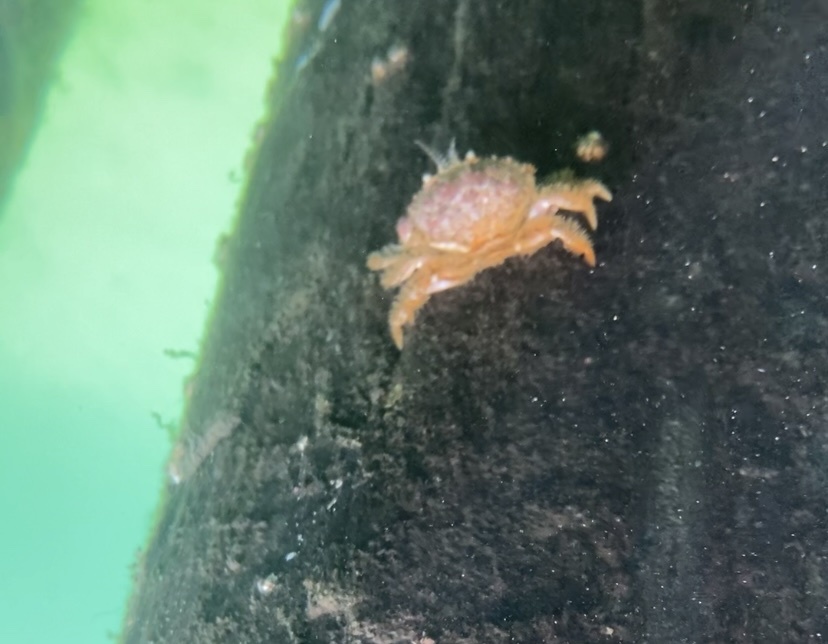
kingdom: Animalia
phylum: Arthropoda
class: Malacostraca
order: Decapoda
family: Cancridae
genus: Glebocarcinus
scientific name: Glebocarcinus oregonensis
